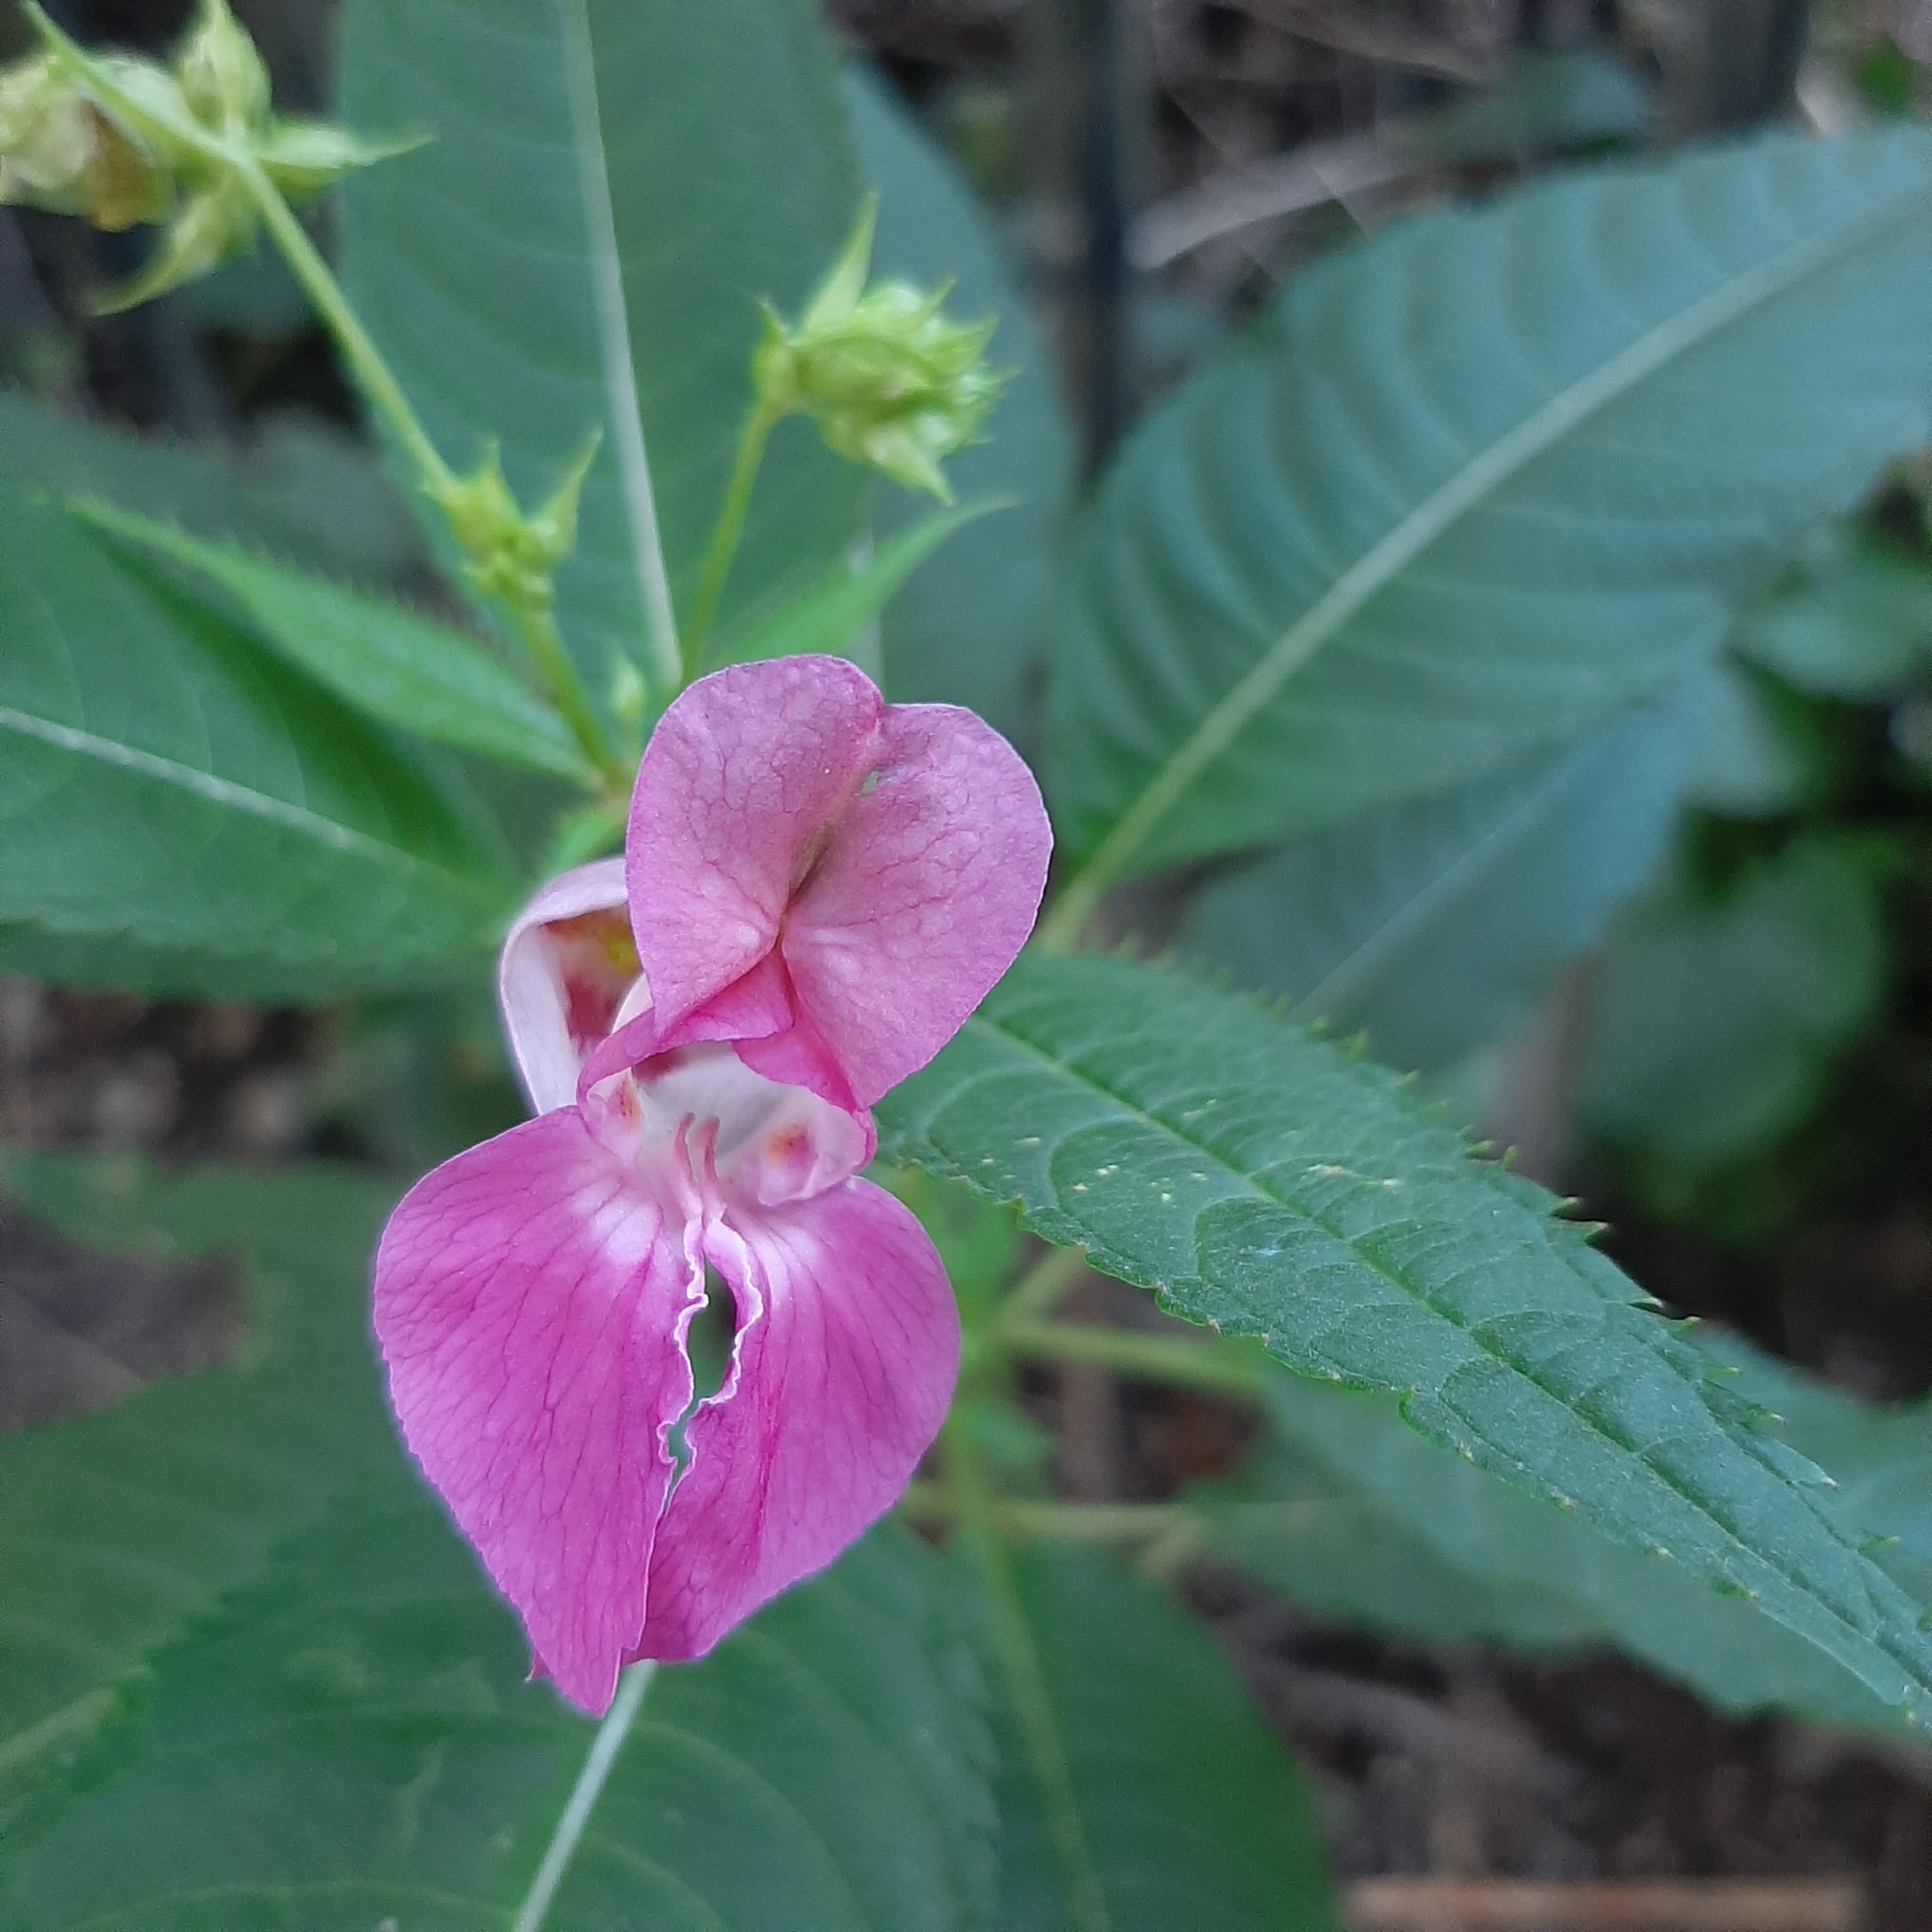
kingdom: Plantae
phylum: Tracheophyta
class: Magnoliopsida
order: Ericales
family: Balsaminaceae
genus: Impatiens
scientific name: Impatiens glandulifera
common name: Himalayan balsam
